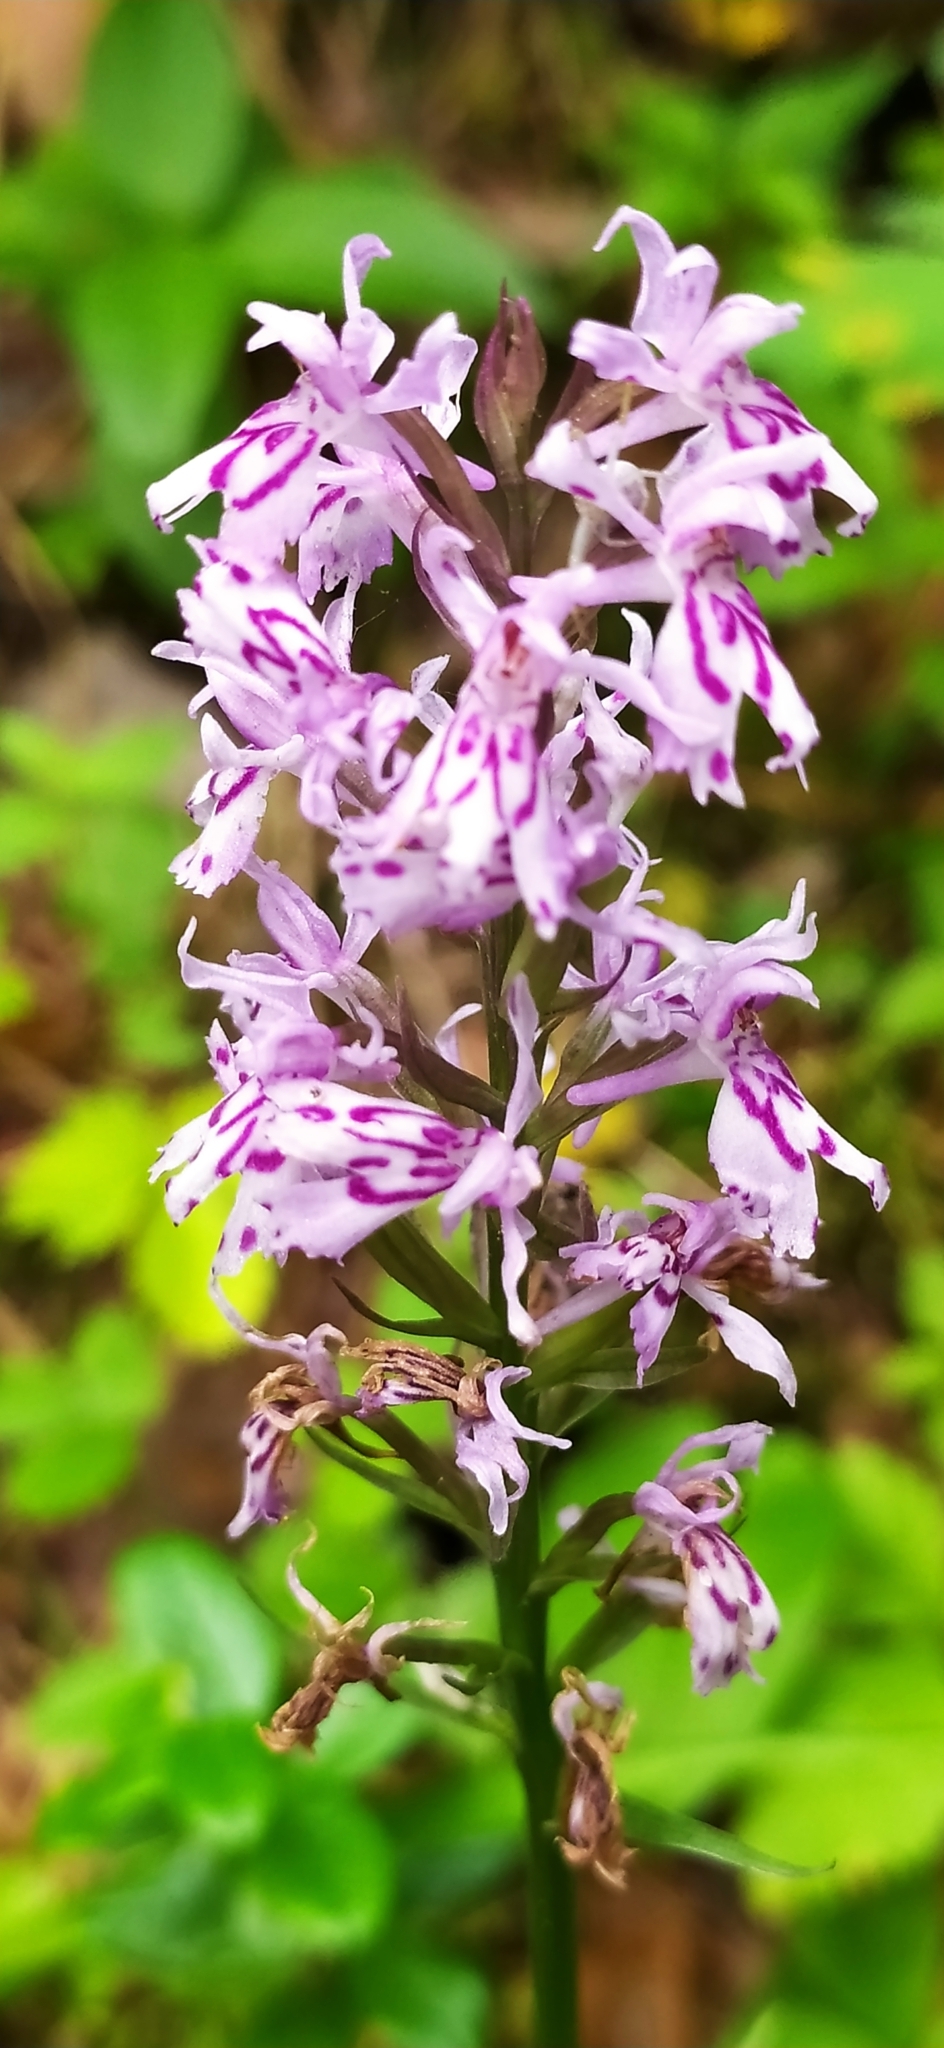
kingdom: Plantae
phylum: Tracheophyta
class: Liliopsida
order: Asparagales
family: Orchidaceae
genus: Dactylorhiza
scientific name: Dactylorhiza maculata
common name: Heath spotted-orchid
